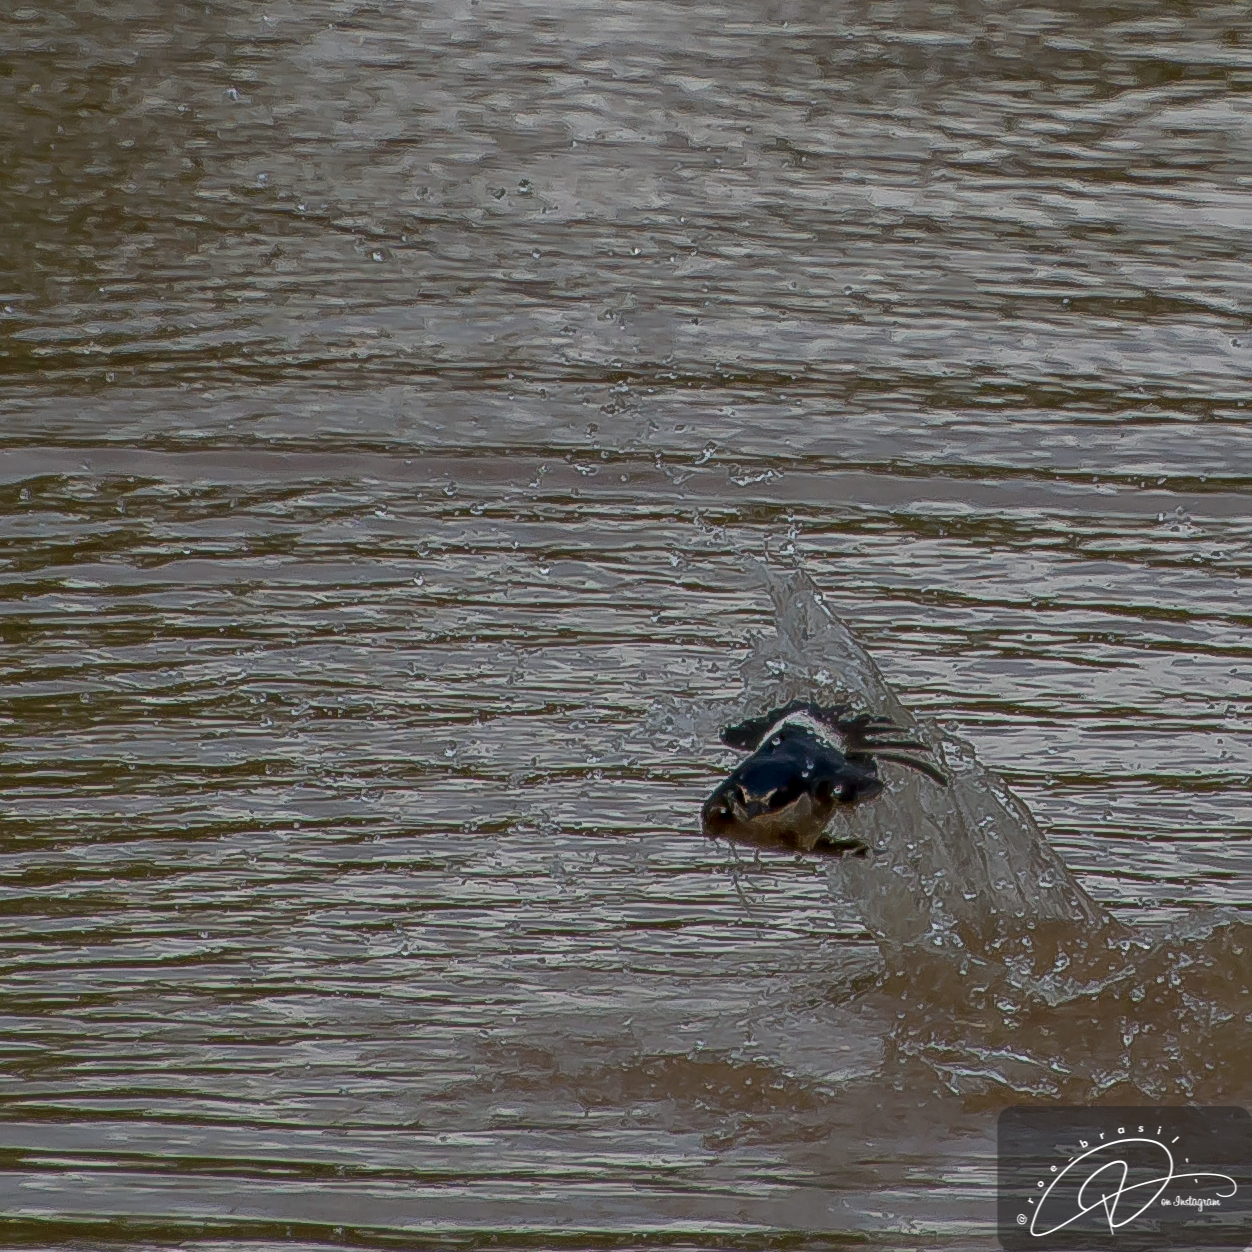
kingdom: Animalia
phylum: Chordata
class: Aves
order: Passeriformes
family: Hirundinidae
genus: Tachycineta
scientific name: Tachycineta leucorrhoa
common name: White-rumped swallow
